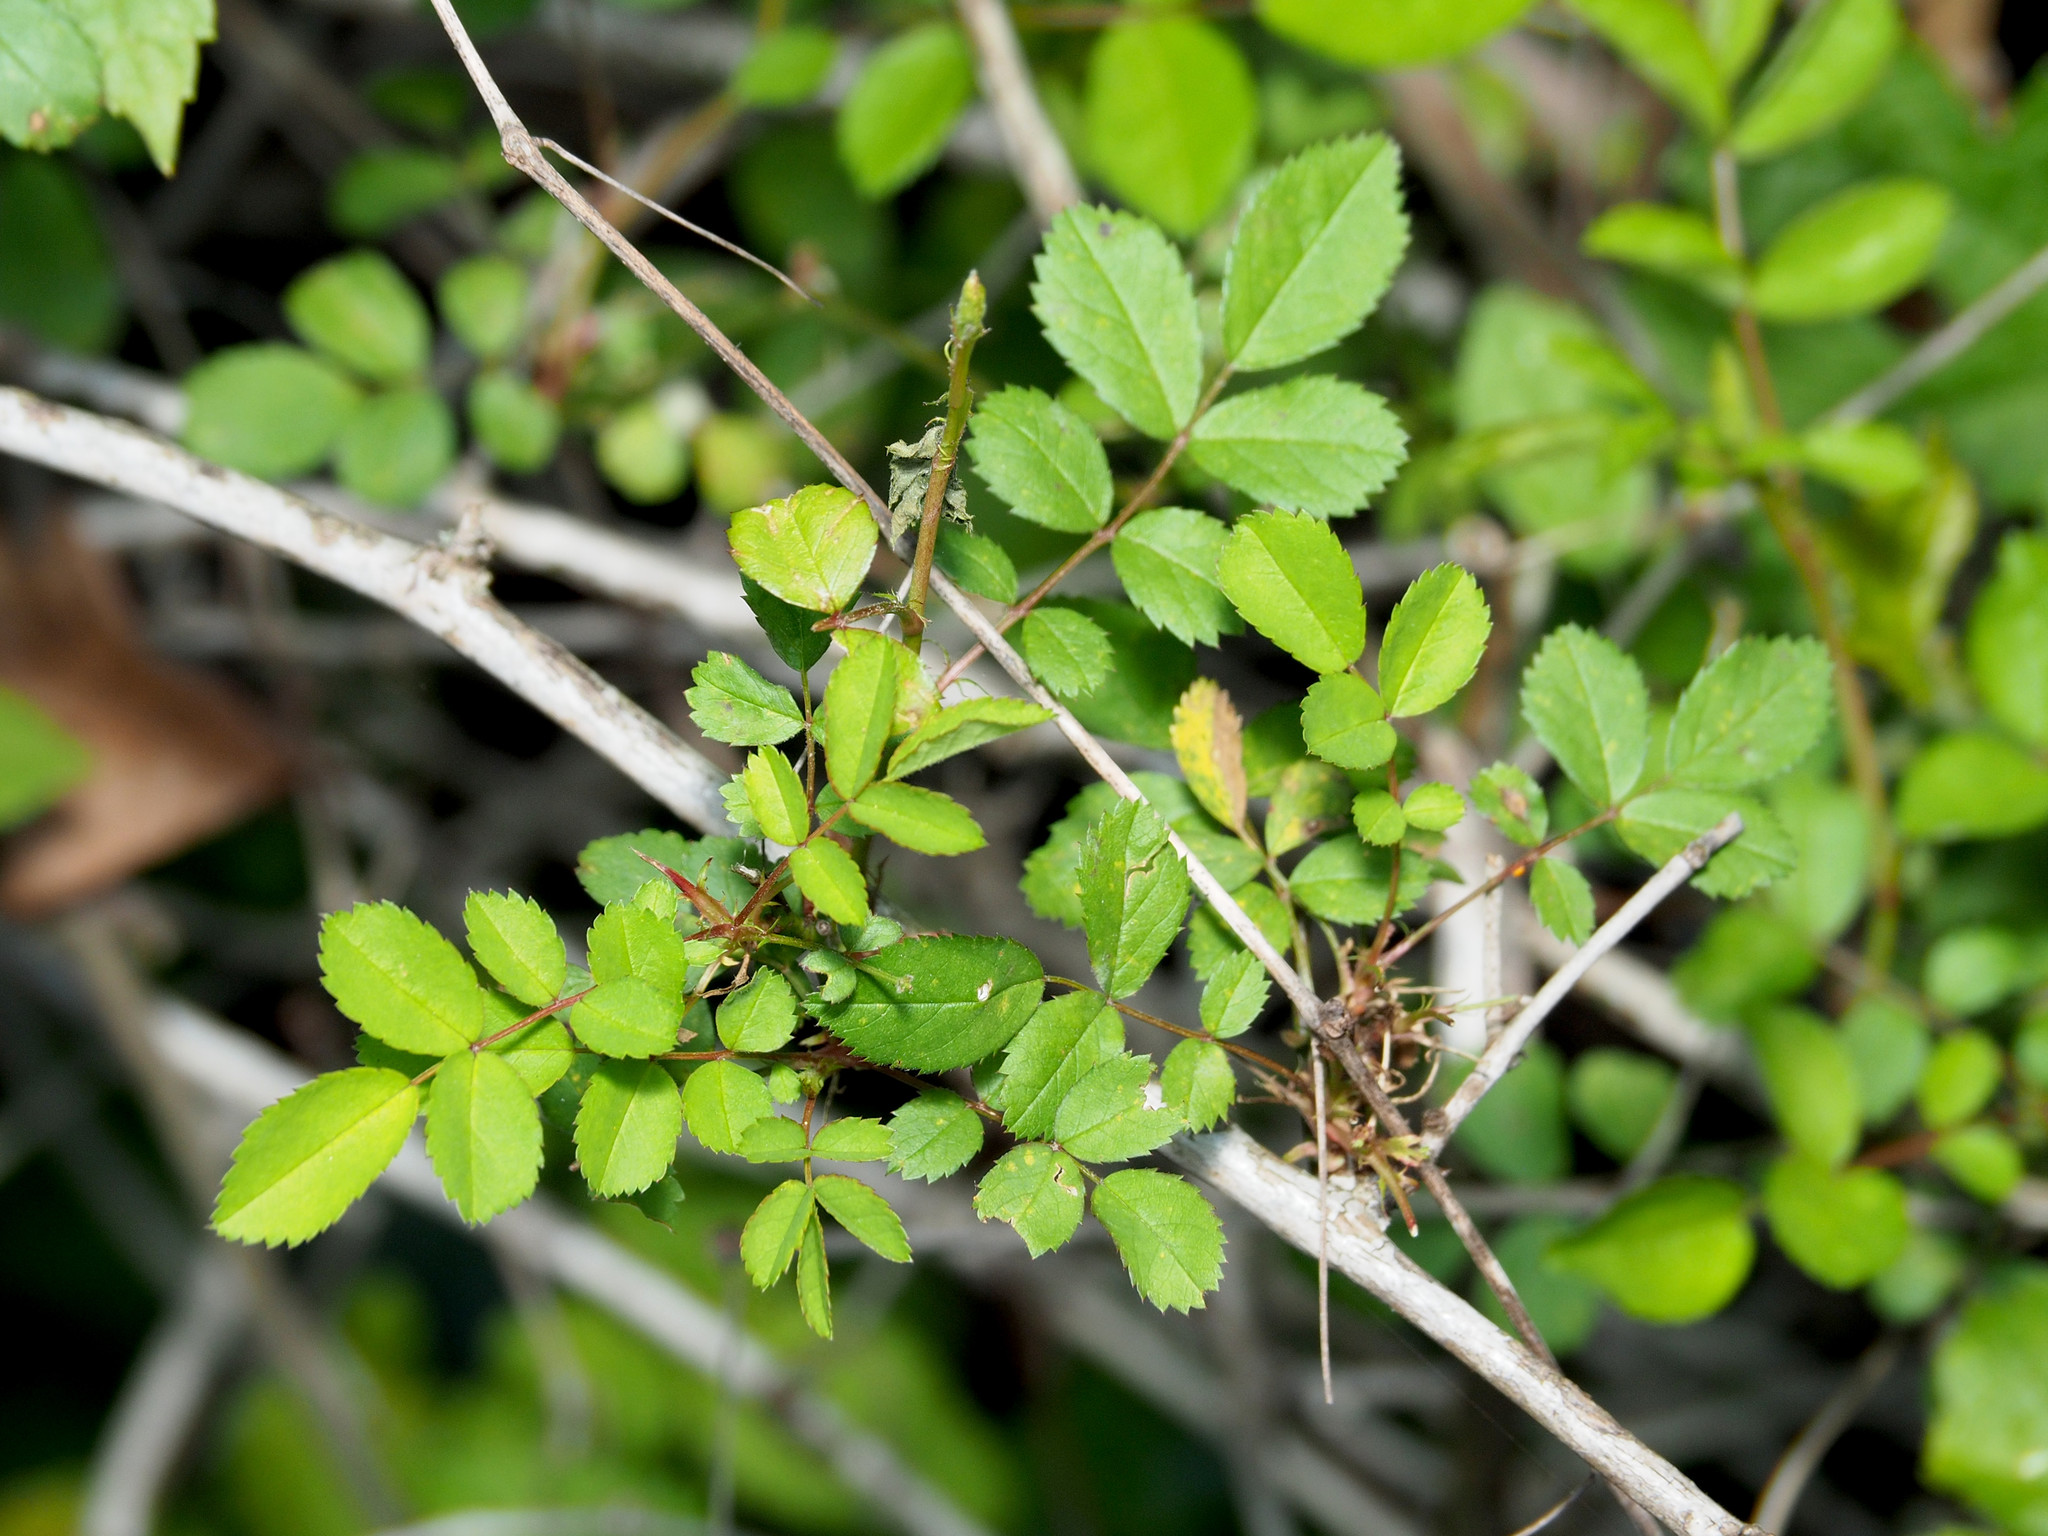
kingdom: Plantae
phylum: Tracheophyta
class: Magnoliopsida
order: Rosales
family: Rosaceae
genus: Rosa
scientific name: Rosa multiflora
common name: Multiflora rose
